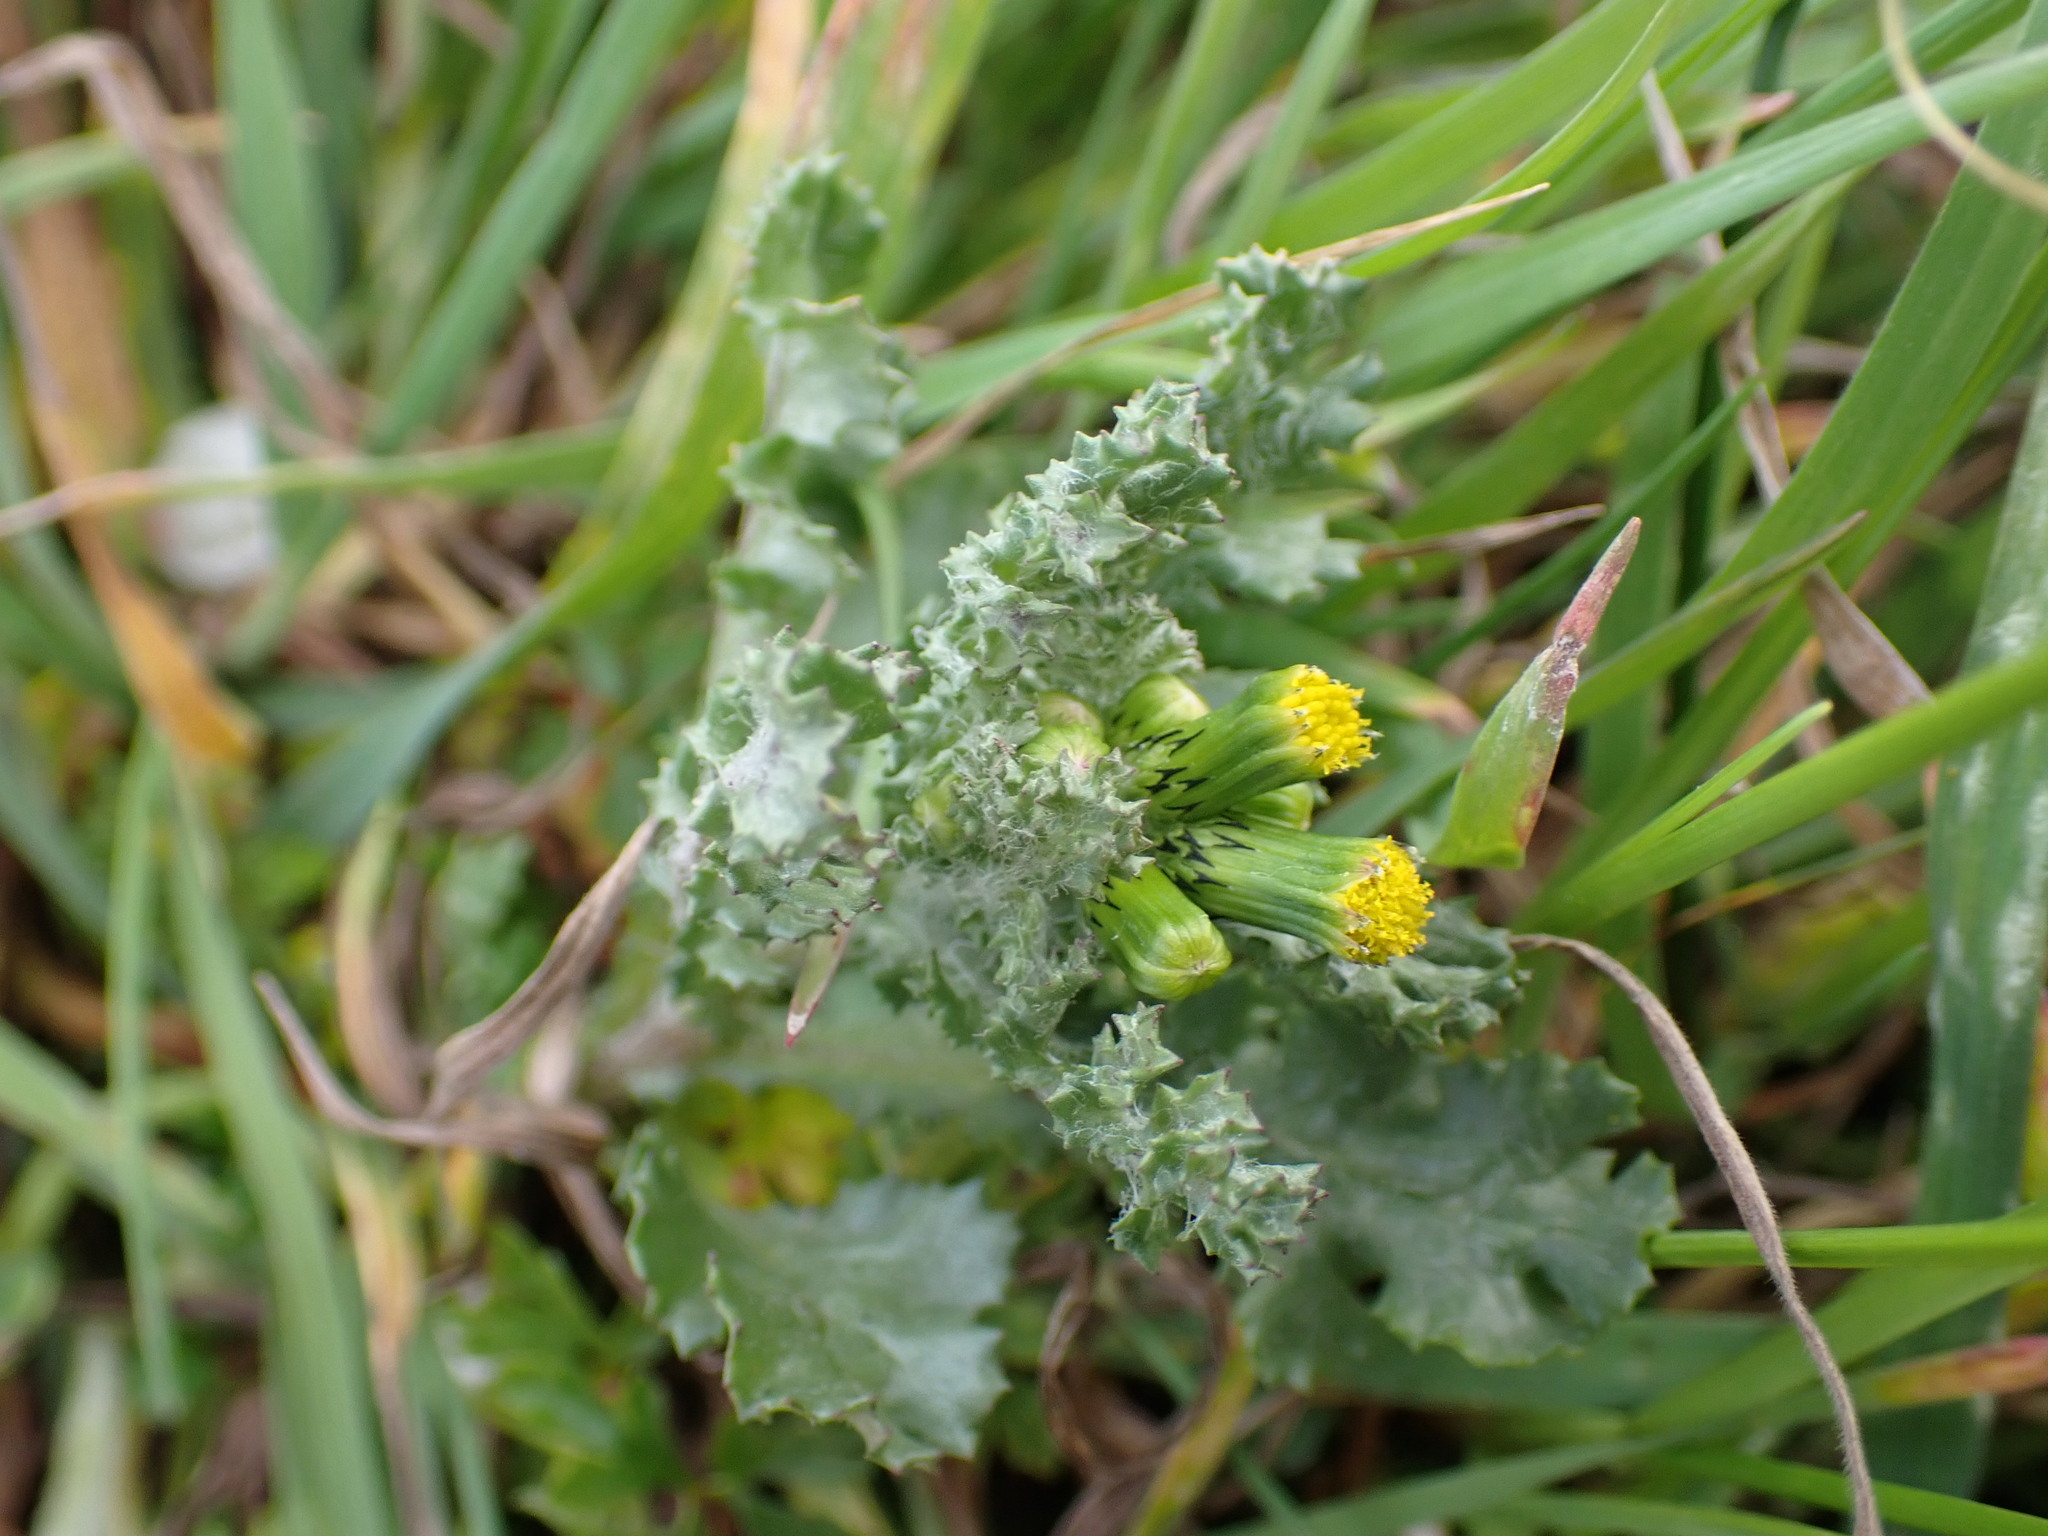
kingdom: Plantae
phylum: Tracheophyta
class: Magnoliopsida
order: Asterales
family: Asteraceae
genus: Senecio
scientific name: Senecio vulgaris
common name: Old-man-in-the-spring
